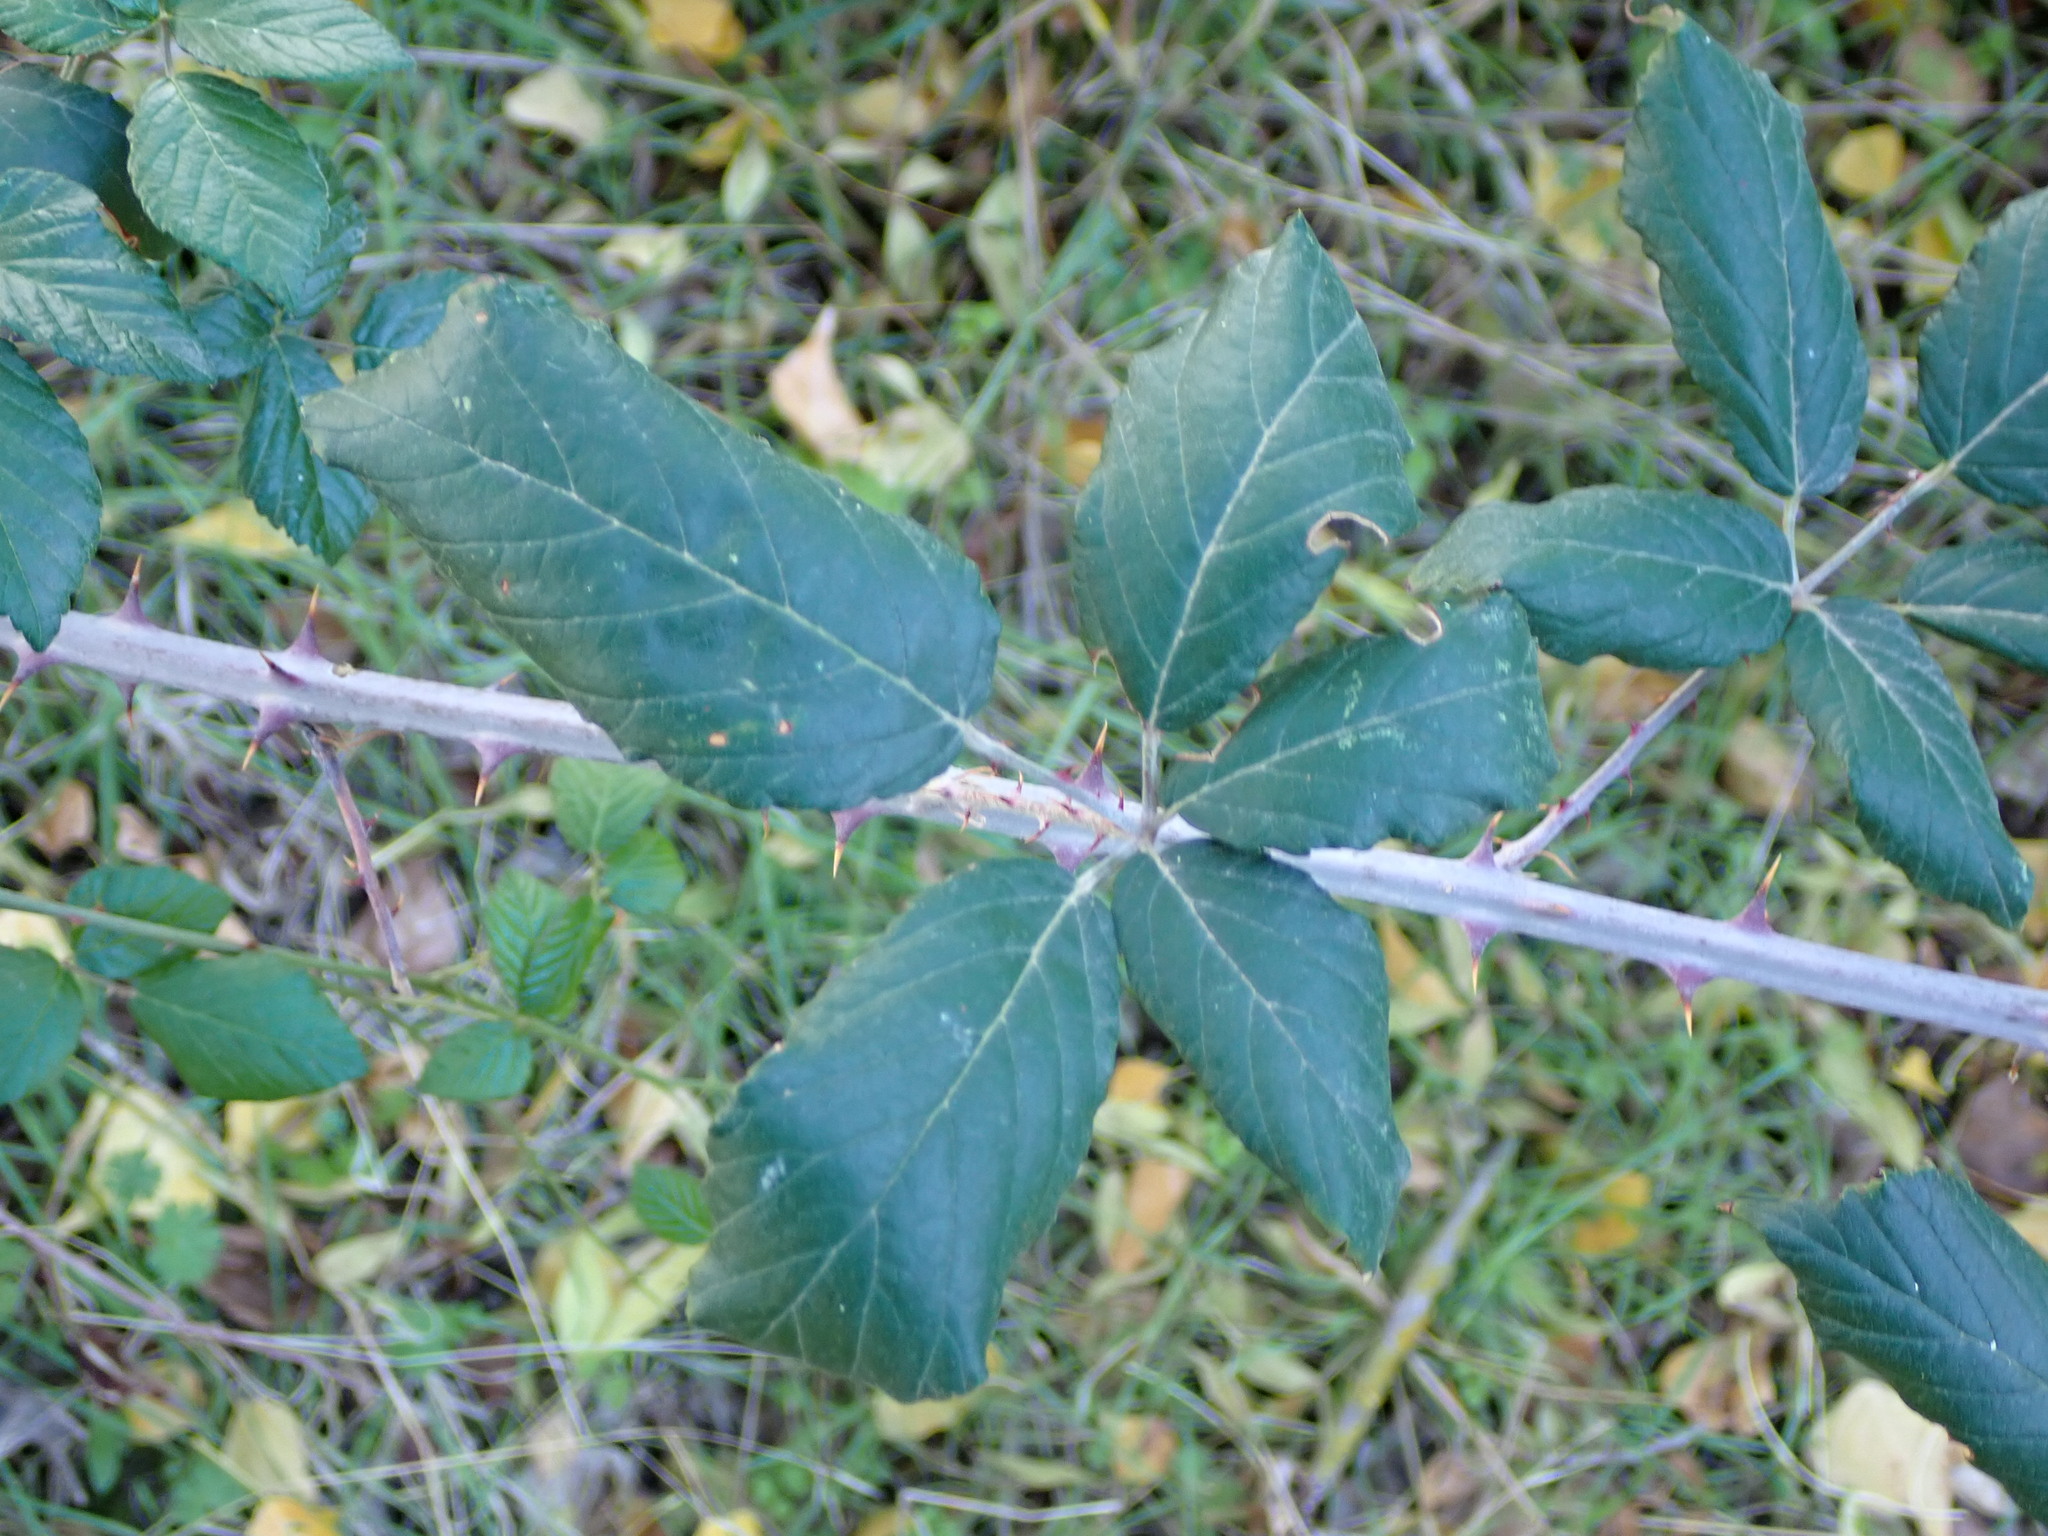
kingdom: Plantae
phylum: Tracheophyta
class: Magnoliopsida
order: Rosales
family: Rosaceae
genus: Rubus
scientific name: Rubus ulmifolius
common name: Elmleaf blackberry
